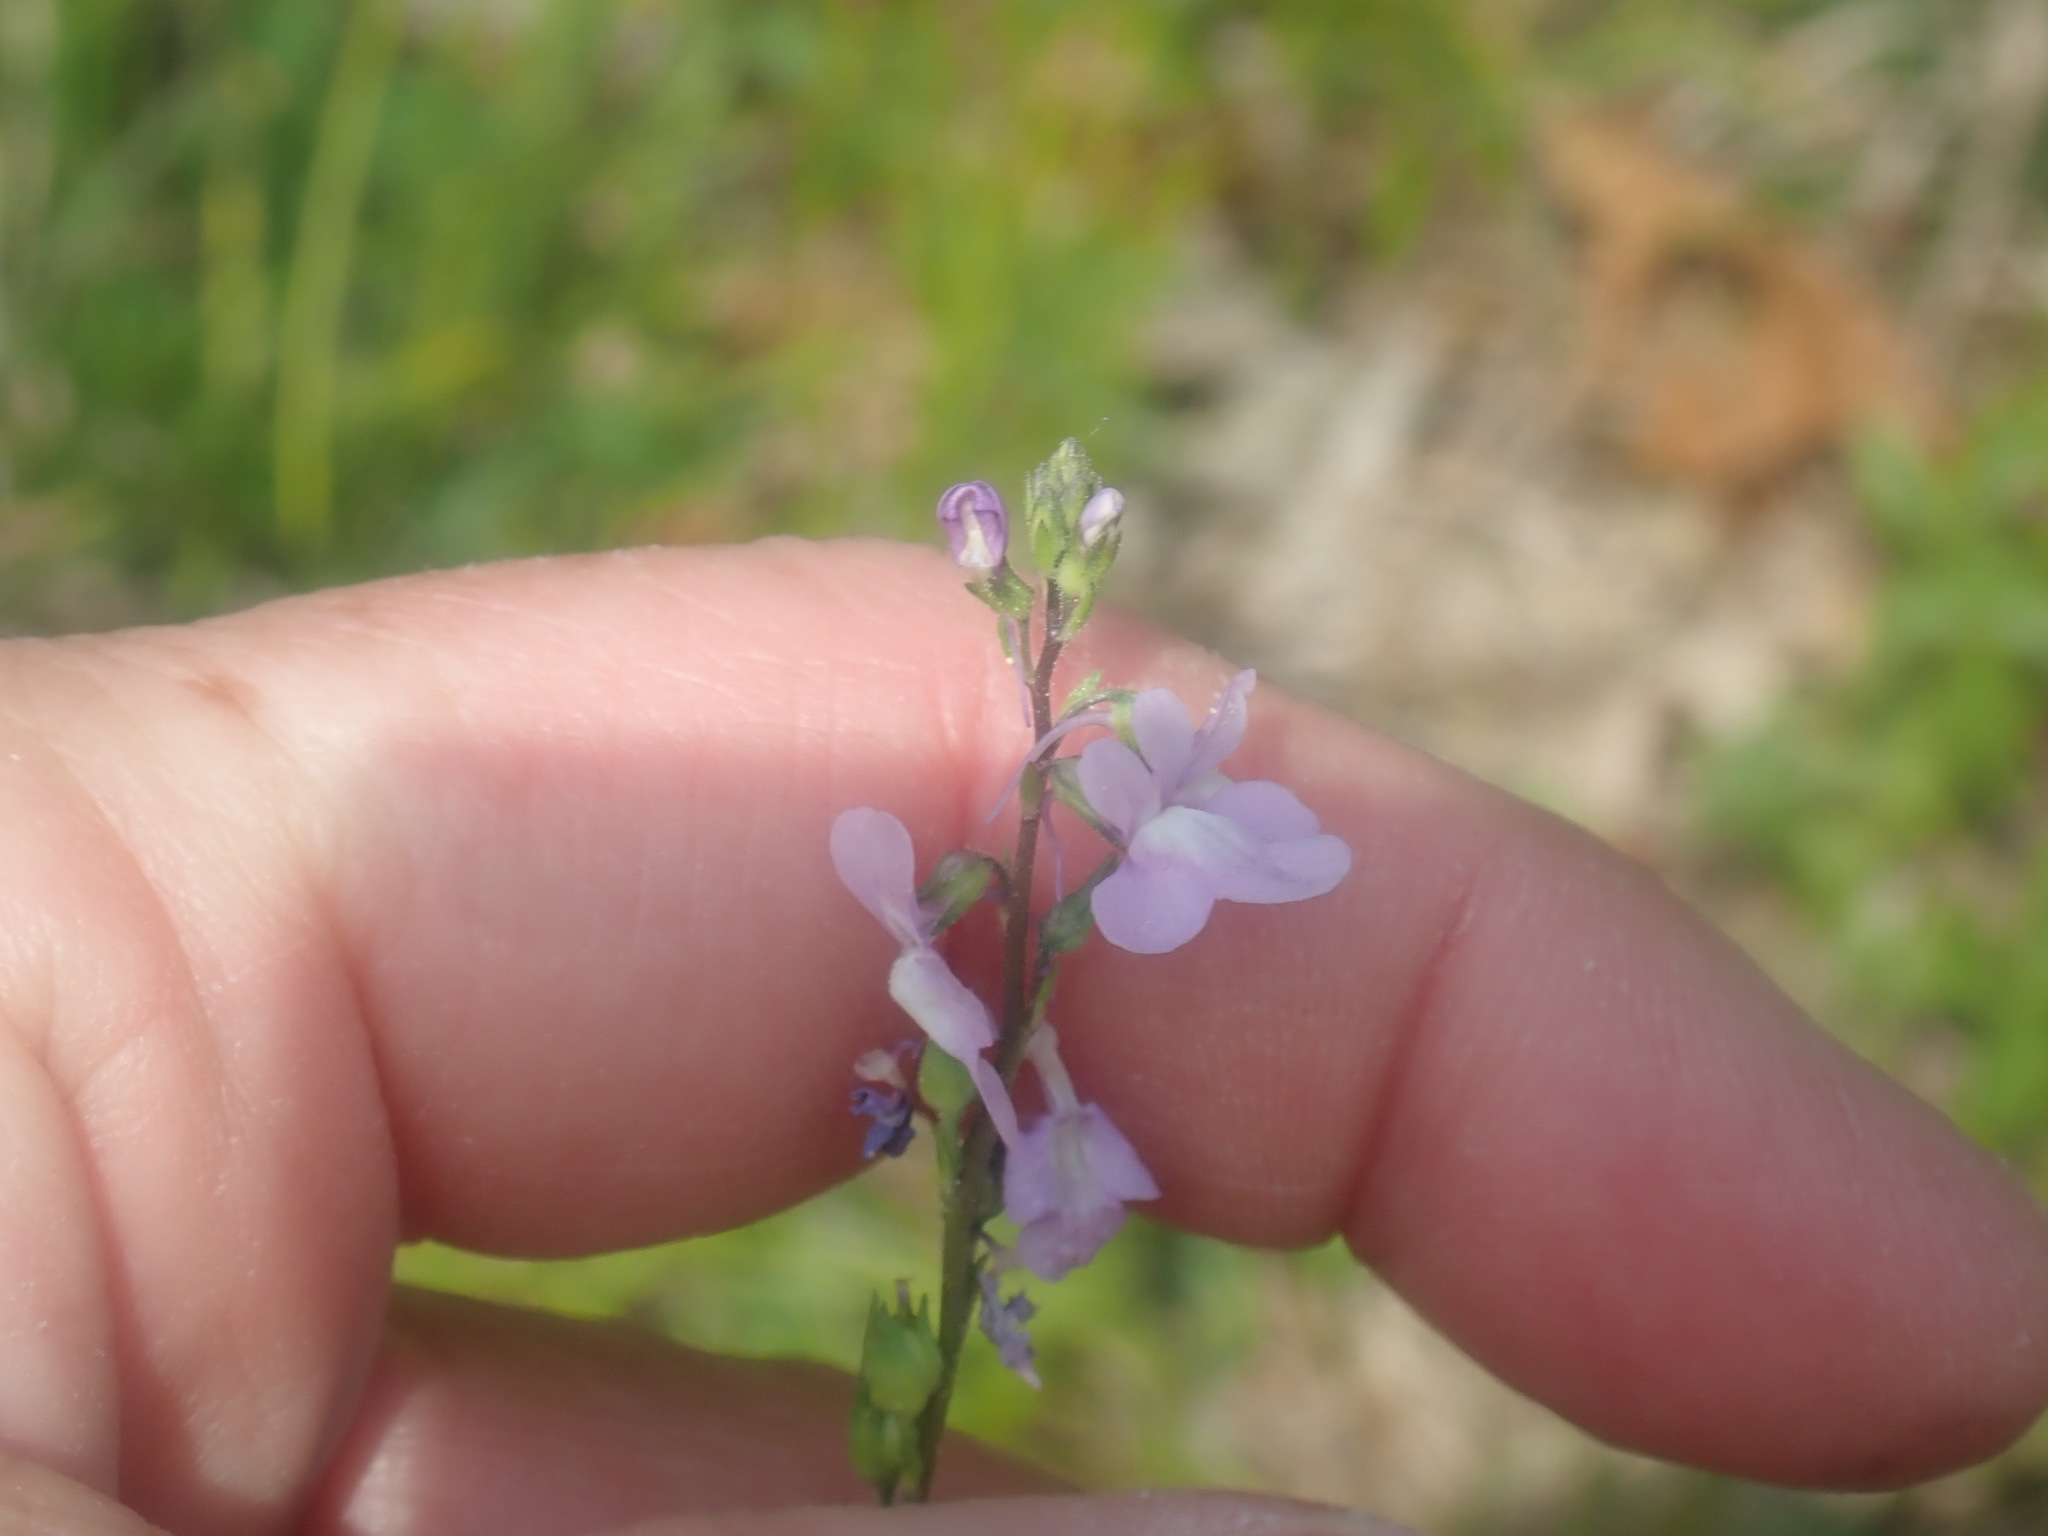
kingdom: Plantae
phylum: Tracheophyta
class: Magnoliopsida
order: Lamiales
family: Plantaginaceae
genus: Nuttallanthus
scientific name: Nuttallanthus canadensis
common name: Blue toadflax
